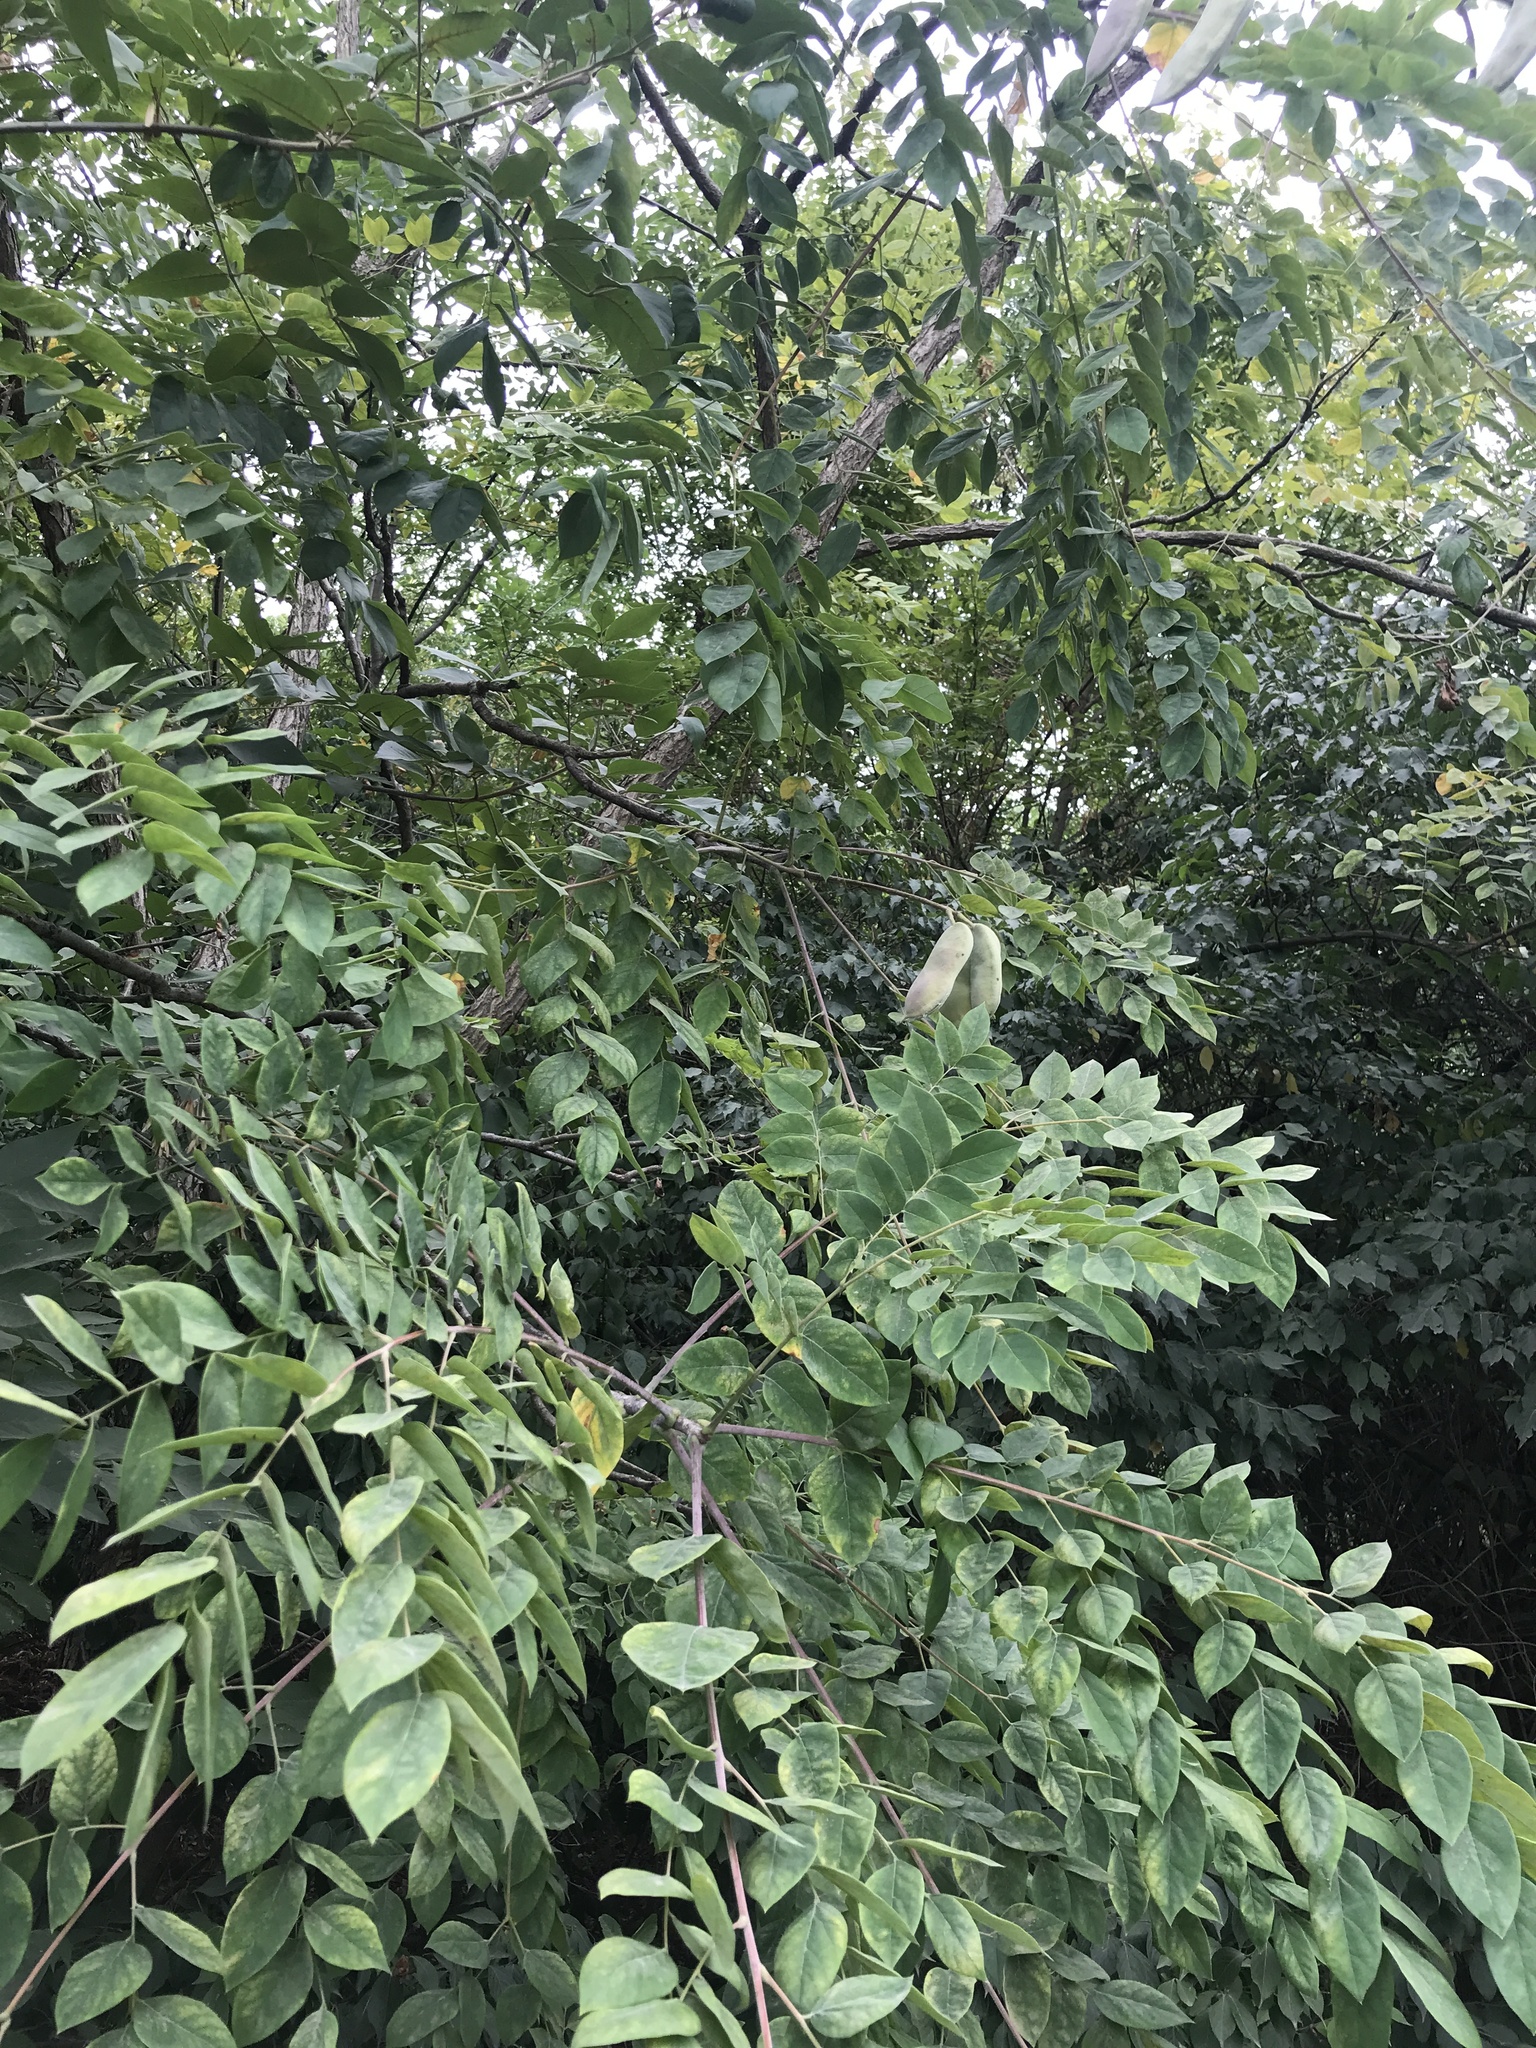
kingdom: Plantae
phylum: Tracheophyta
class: Magnoliopsida
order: Fabales
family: Fabaceae
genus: Gymnocladus
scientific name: Gymnocladus dioicus
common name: Kentucky coffee-tree
